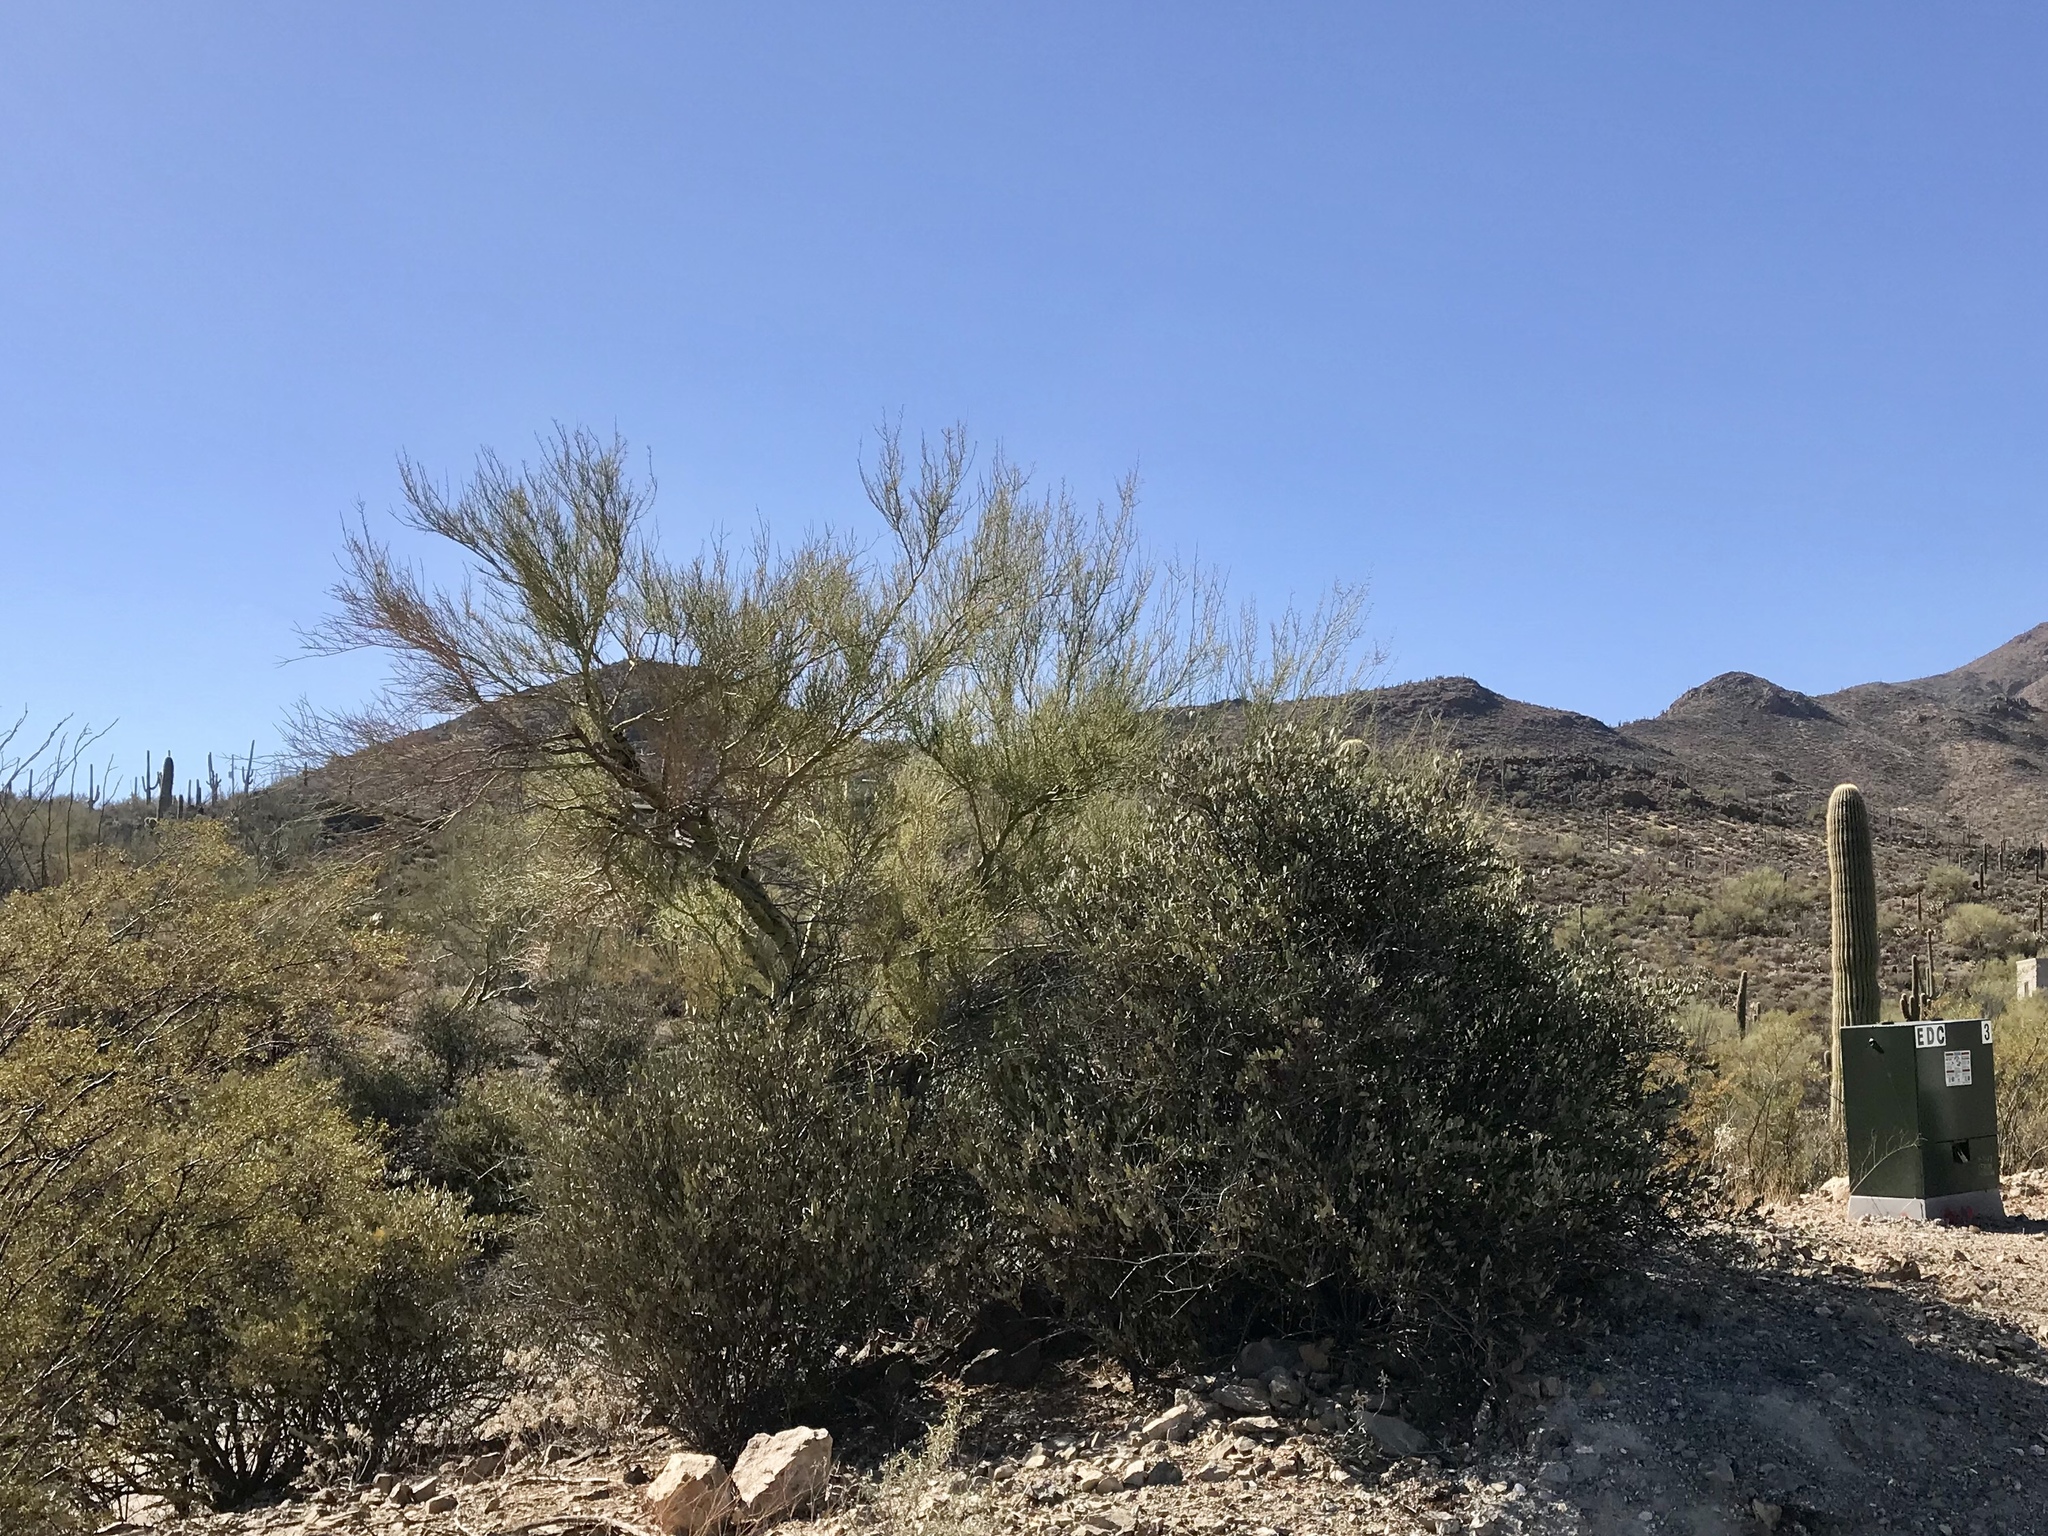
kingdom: Plantae
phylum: Tracheophyta
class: Magnoliopsida
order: Caryophyllales
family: Simmondsiaceae
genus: Simmondsia
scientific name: Simmondsia chinensis
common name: Jojoba
